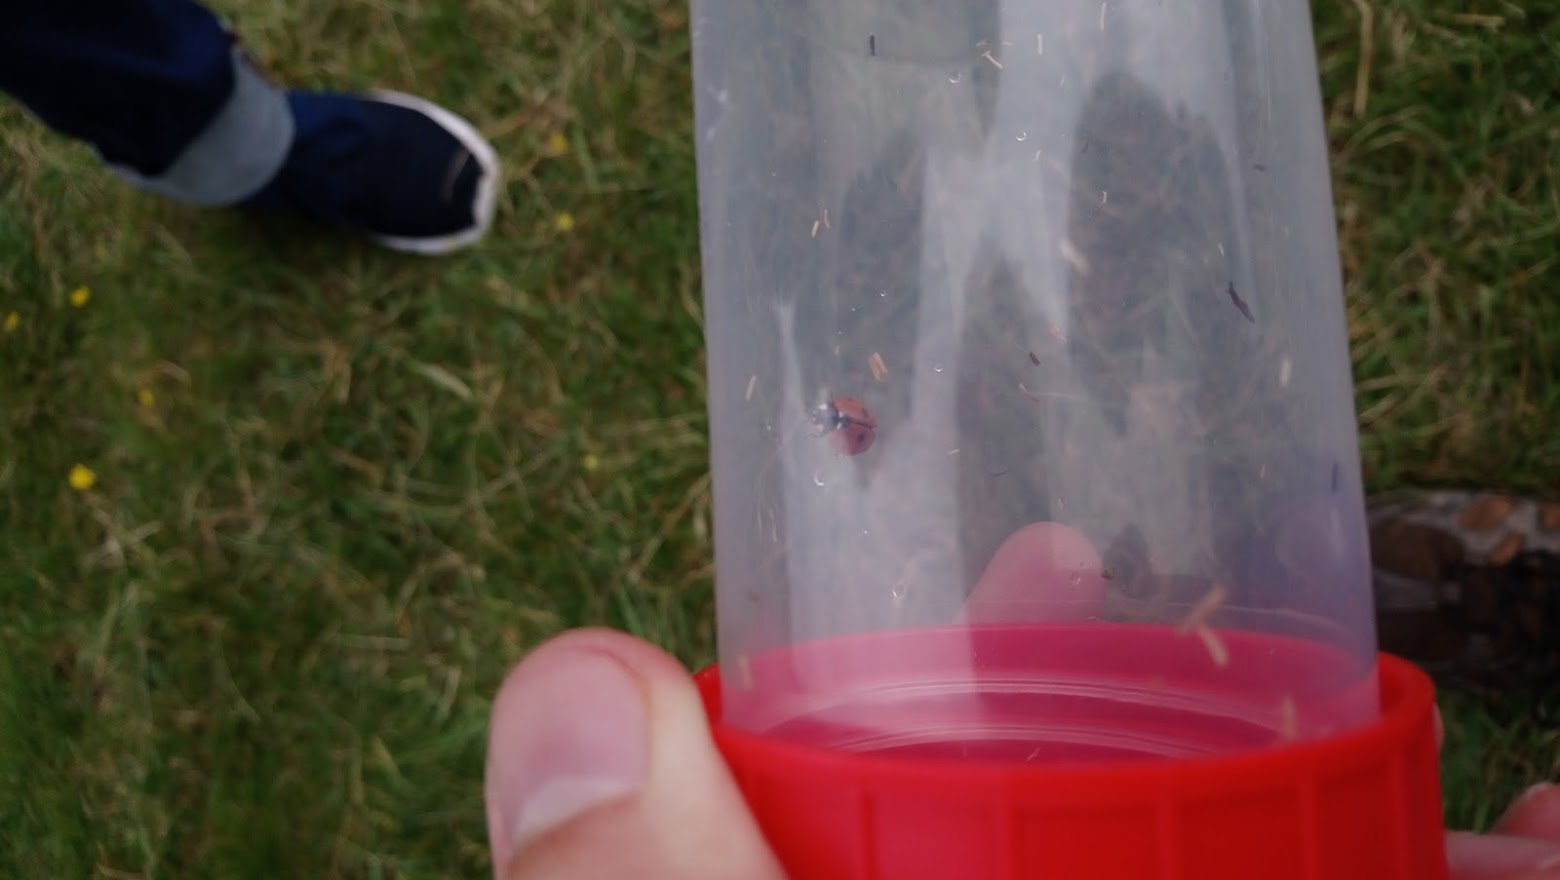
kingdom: Animalia
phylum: Arthropoda
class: Insecta
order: Coleoptera
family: Coccinellidae
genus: Coccinella
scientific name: Coccinella septempunctata
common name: Sevenspotted lady beetle
